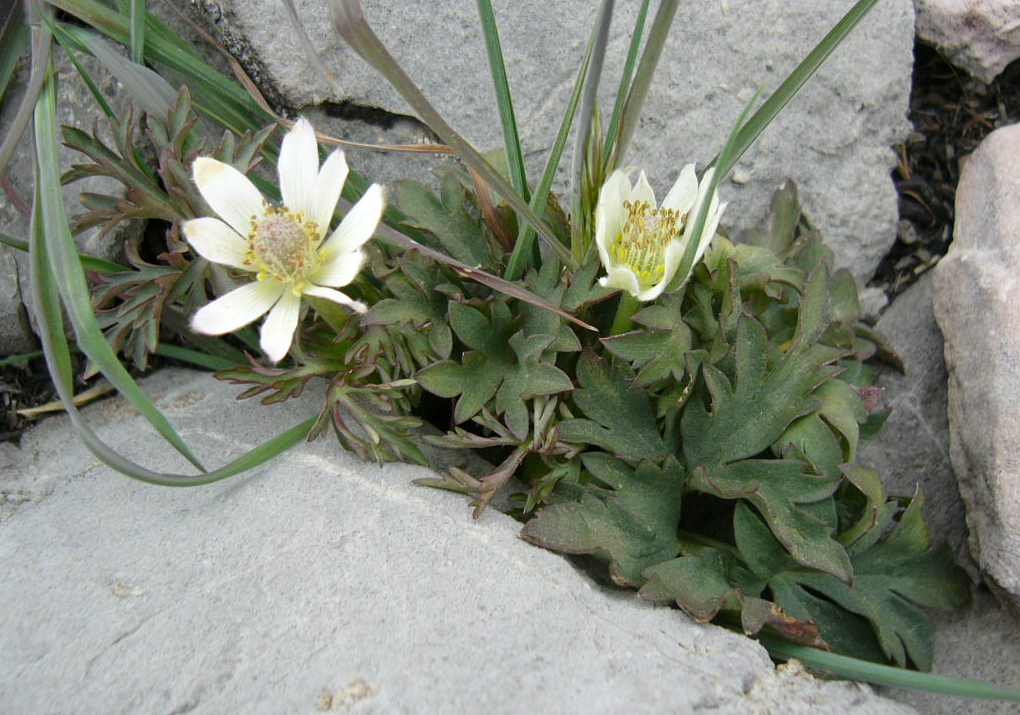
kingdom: Plantae
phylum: Tracheophyta
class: Magnoliopsida
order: Ranunculales
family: Ranunculaceae
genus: Anemone
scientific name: Anemone tuberosa
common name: Desert anemone
